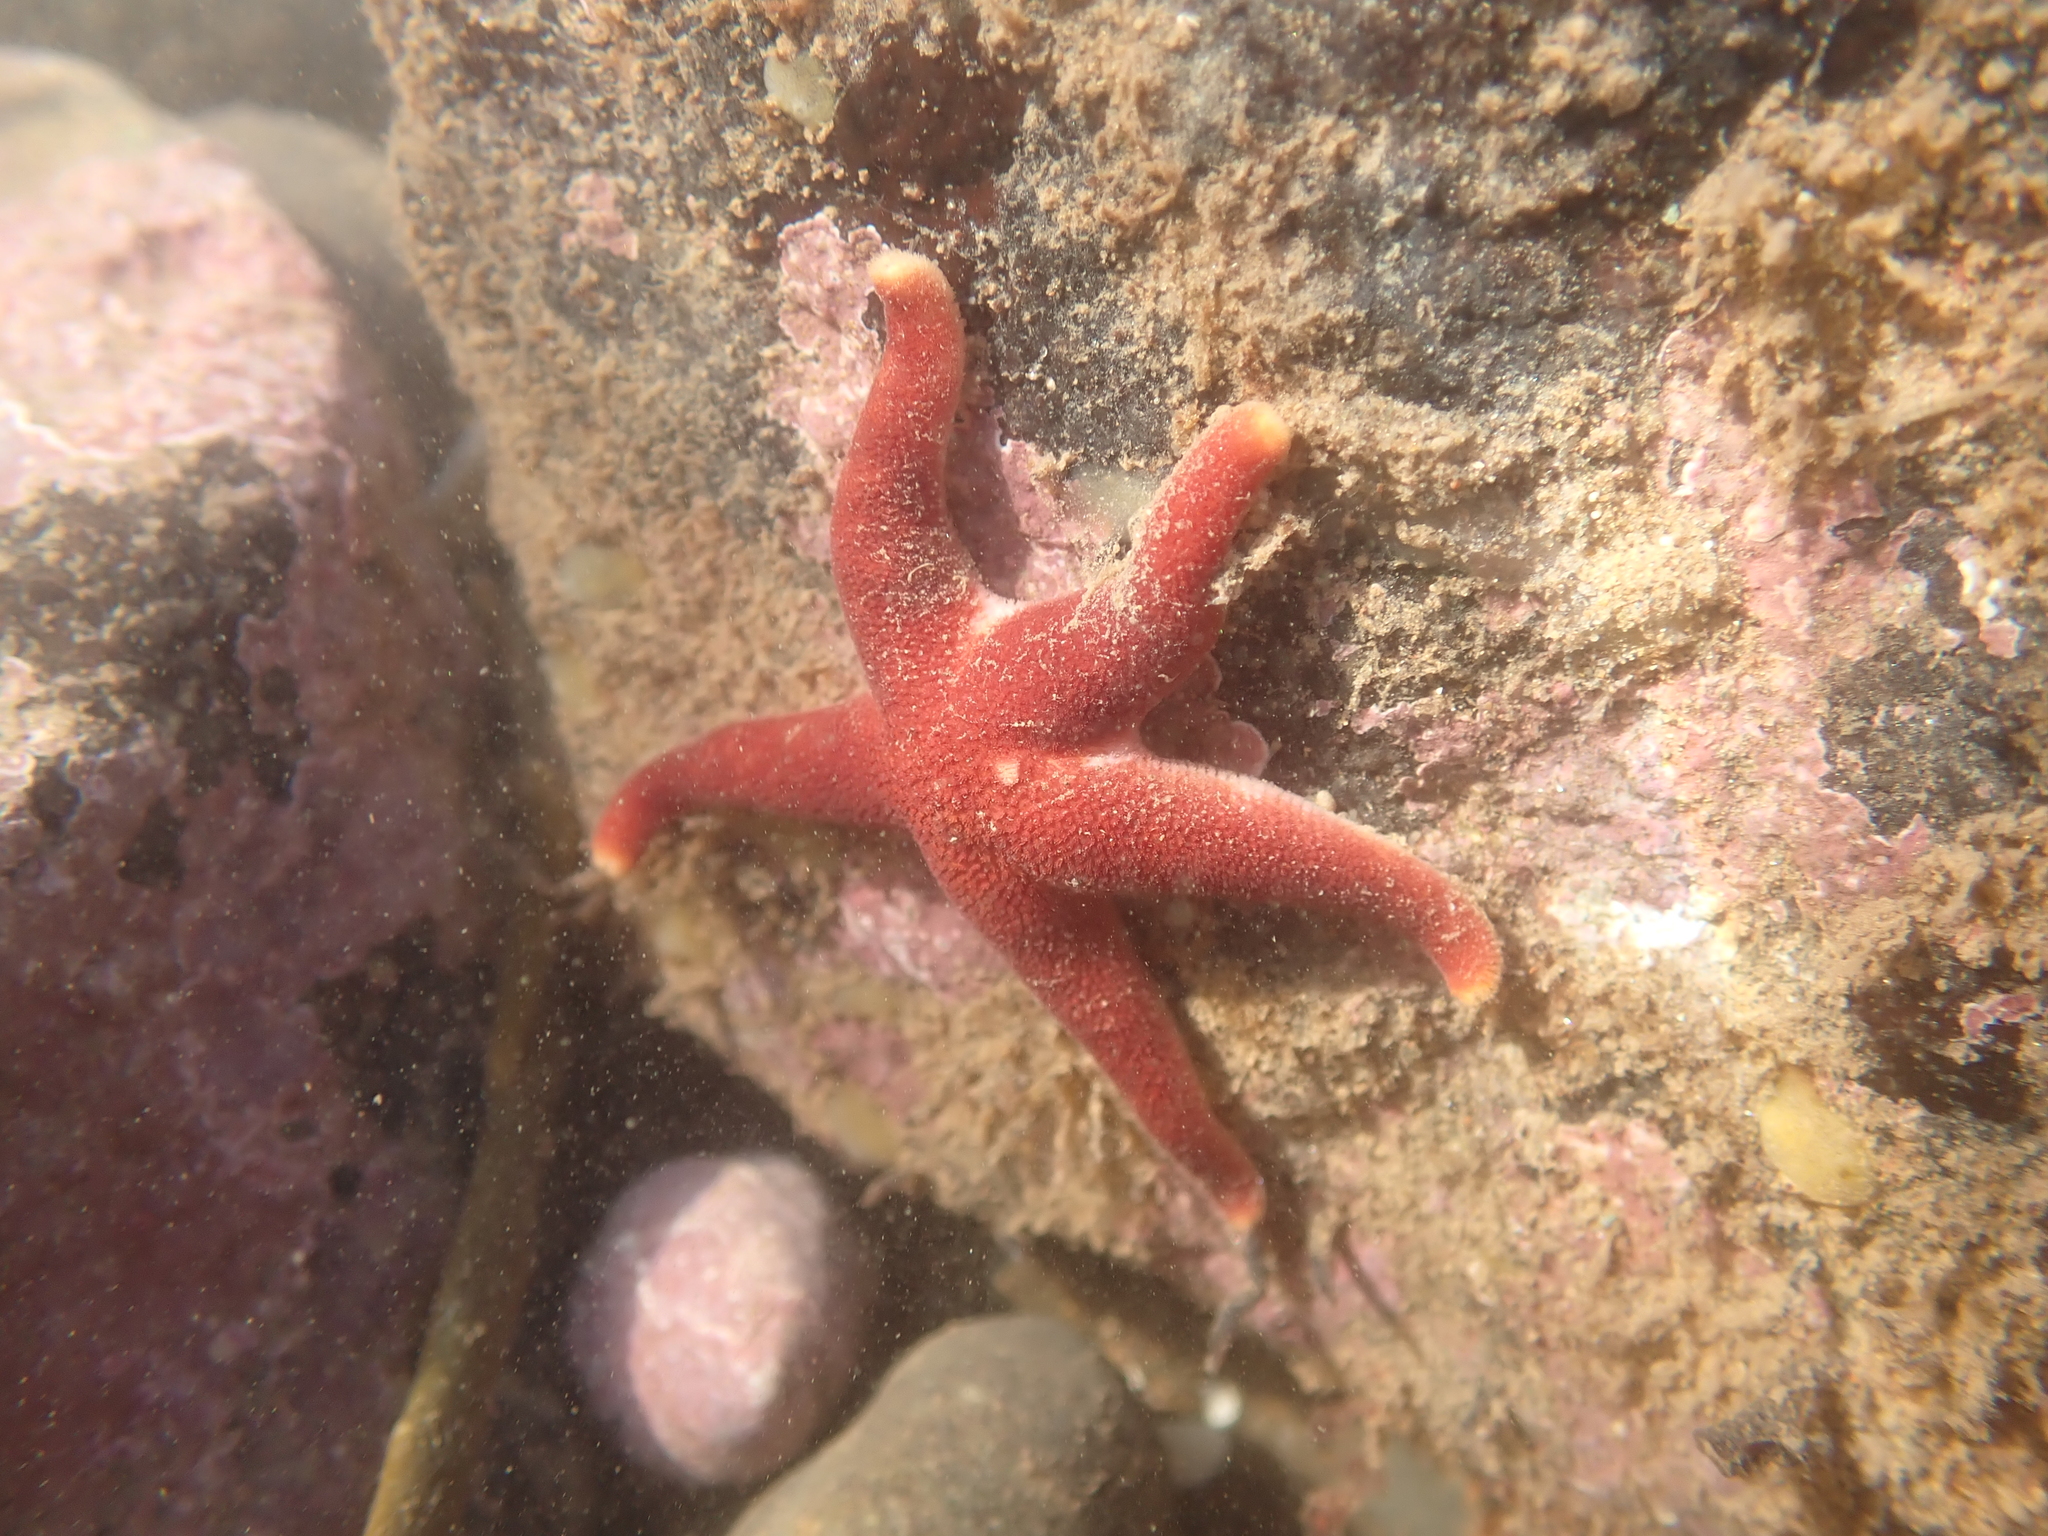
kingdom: Animalia
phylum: Echinodermata
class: Asteroidea
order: Spinulosida
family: Echinasteridae
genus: Henricia
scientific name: Henricia sanguinolenta
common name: Blood star
